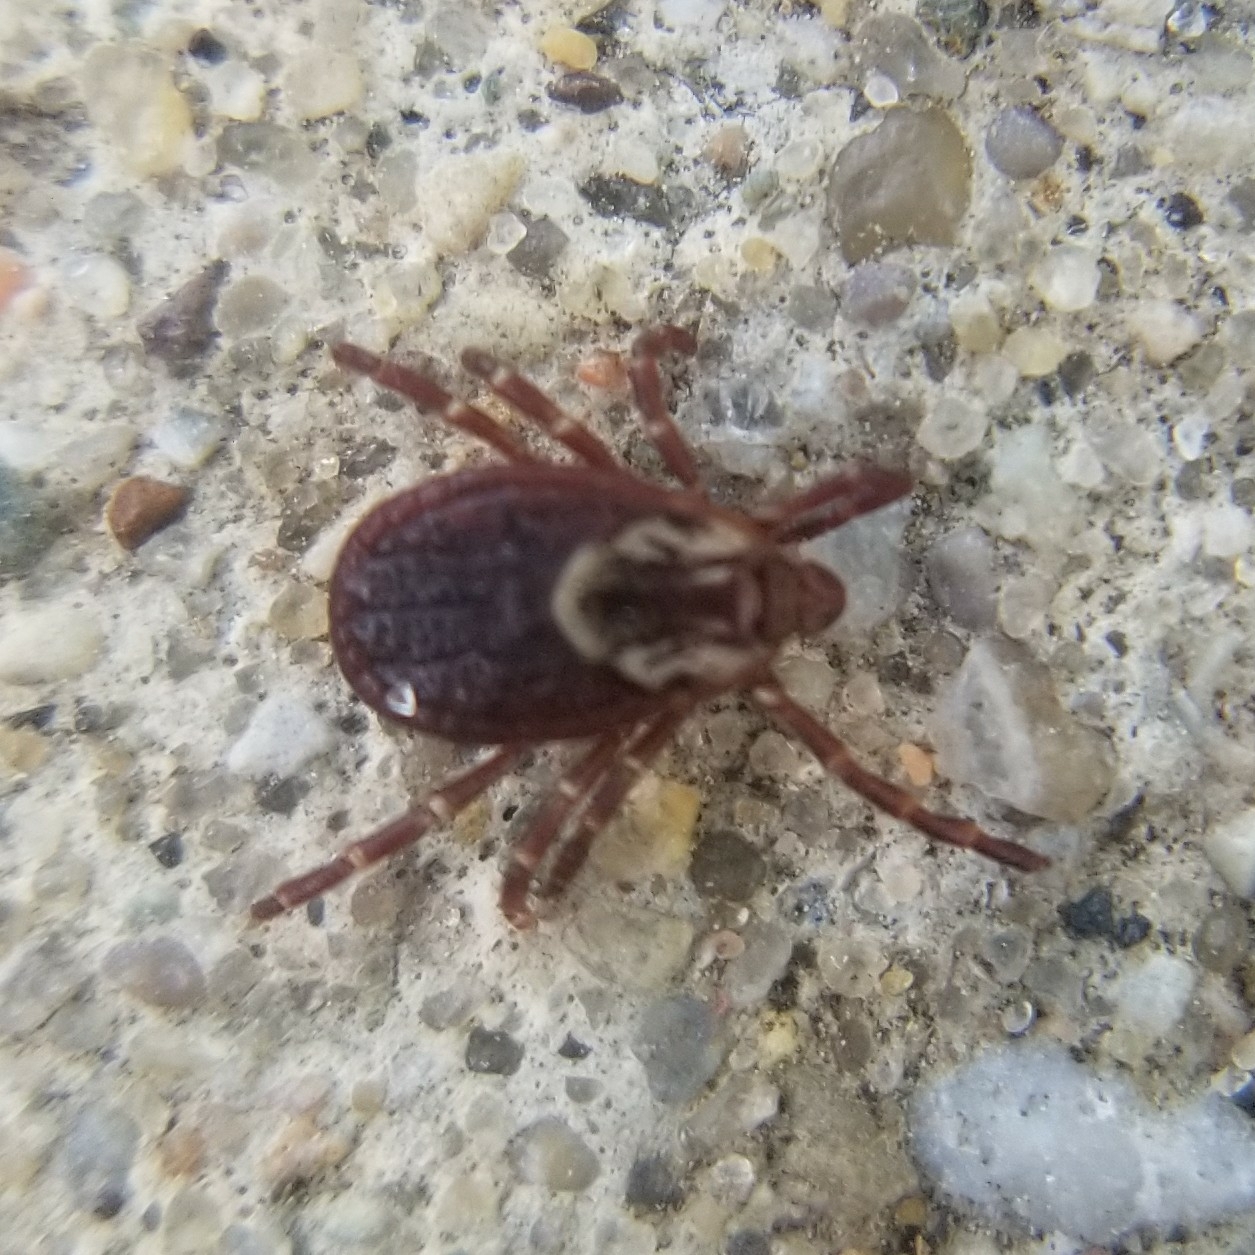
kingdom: Animalia
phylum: Arthropoda
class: Arachnida
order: Ixodida
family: Ixodidae
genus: Dermacentor
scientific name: Dermacentor variabilis
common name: American dog tick
